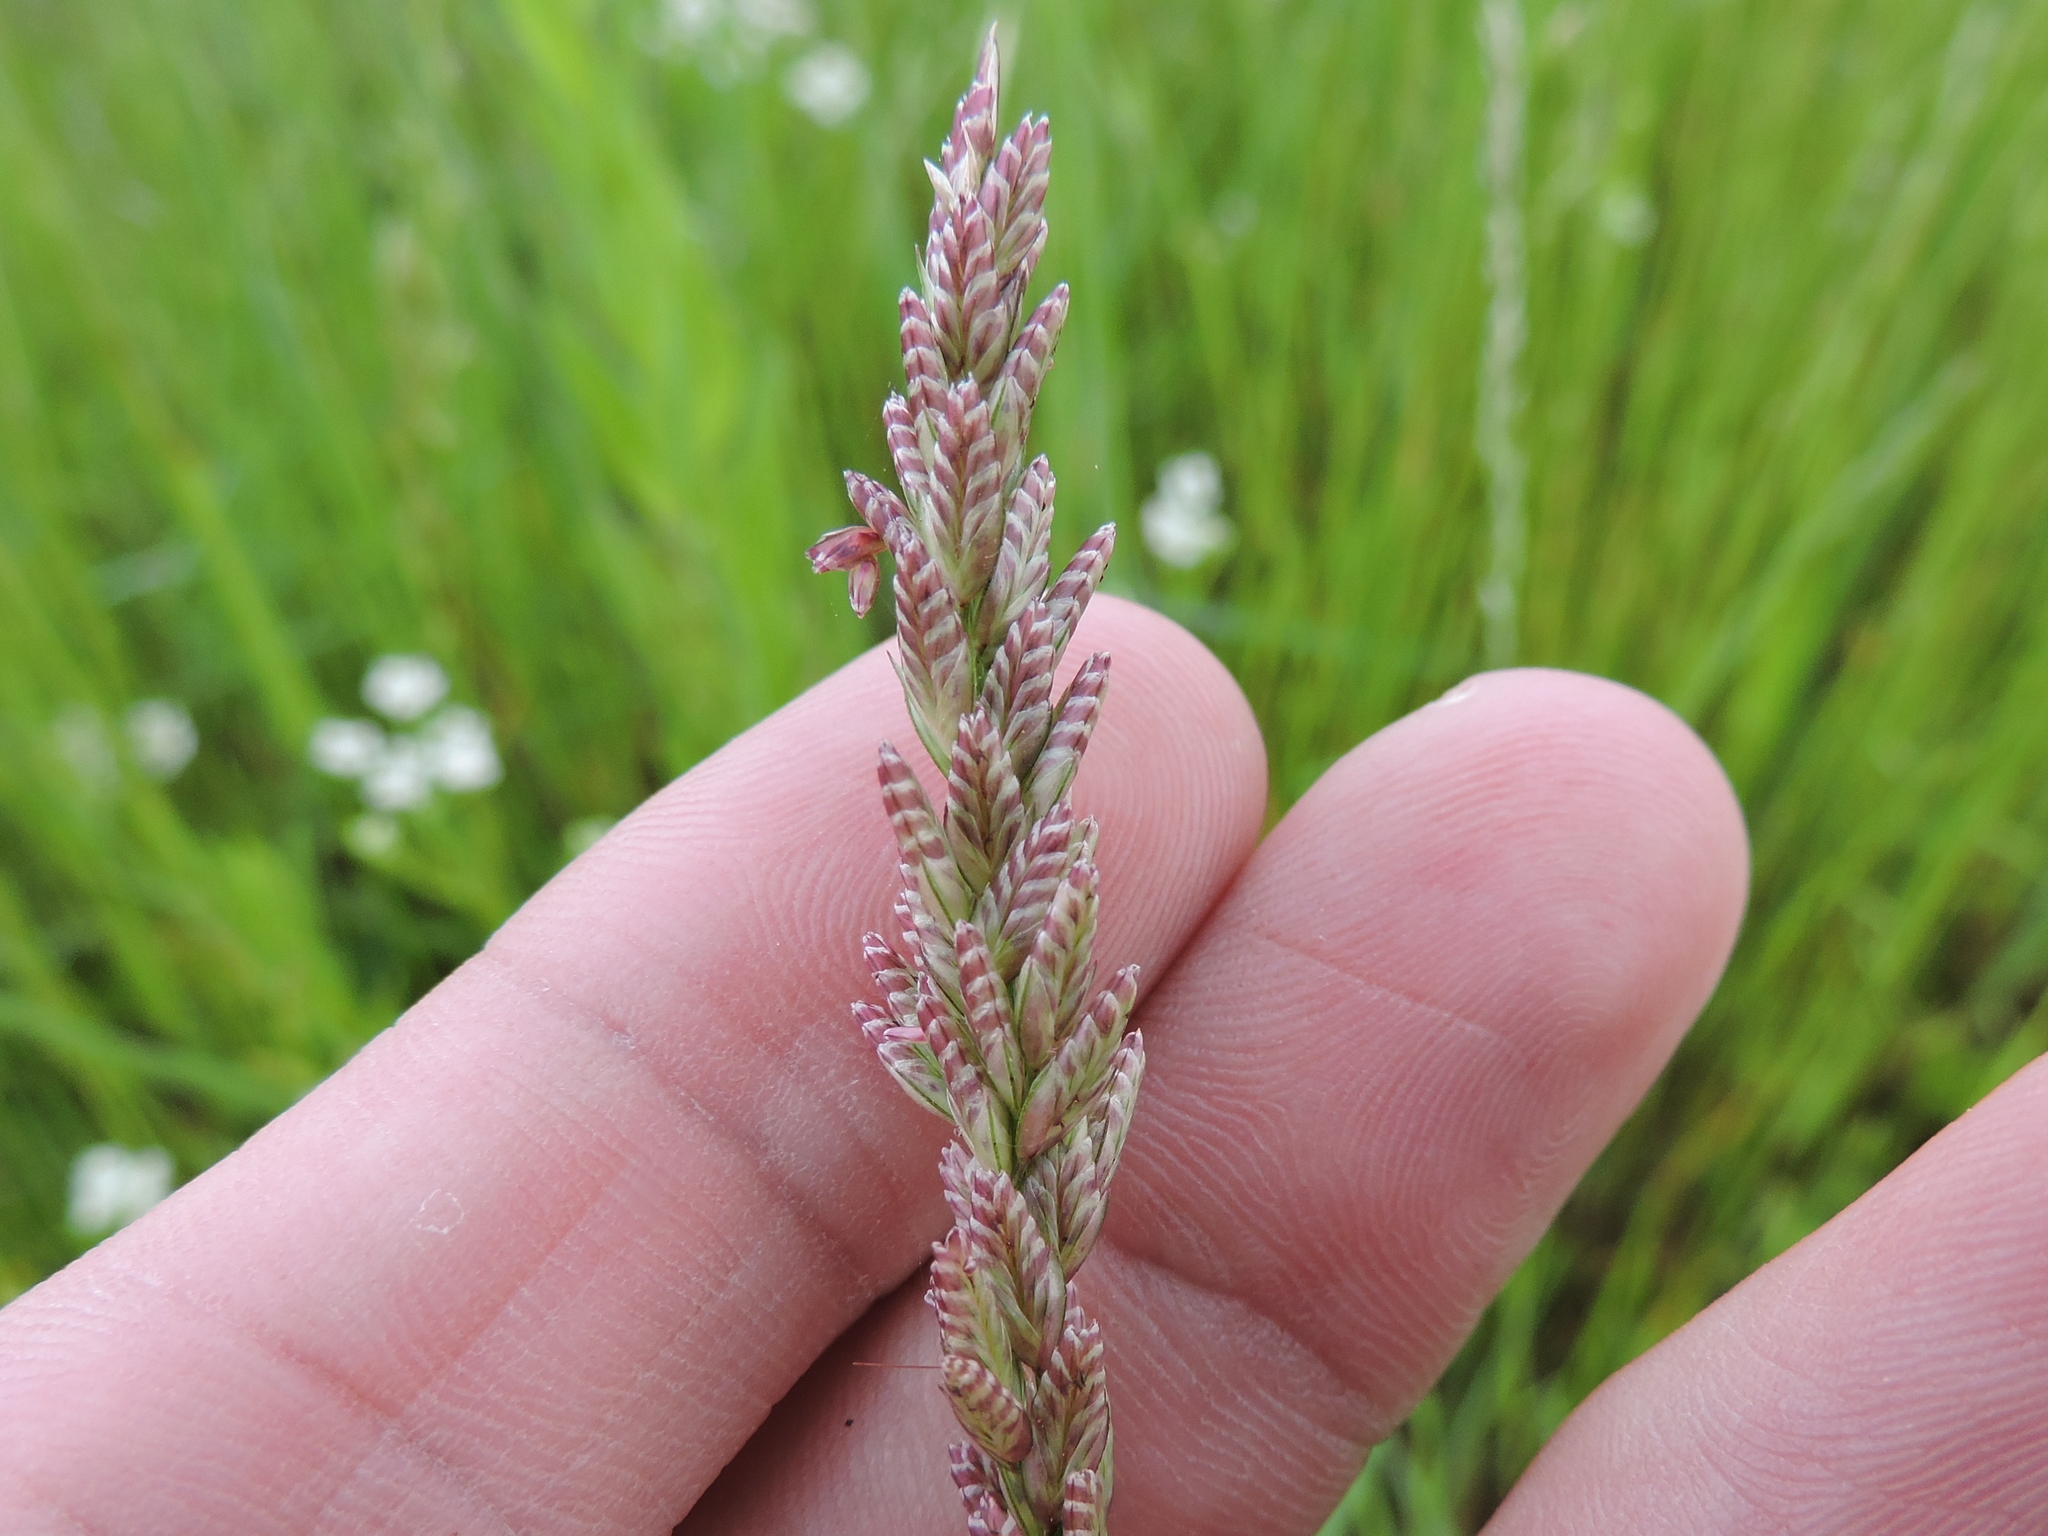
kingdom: Plantae
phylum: Tracheophyta
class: Liliopsida
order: Poales
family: Poaceae
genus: Tridens
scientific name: Tridens albescens
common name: White tridens
